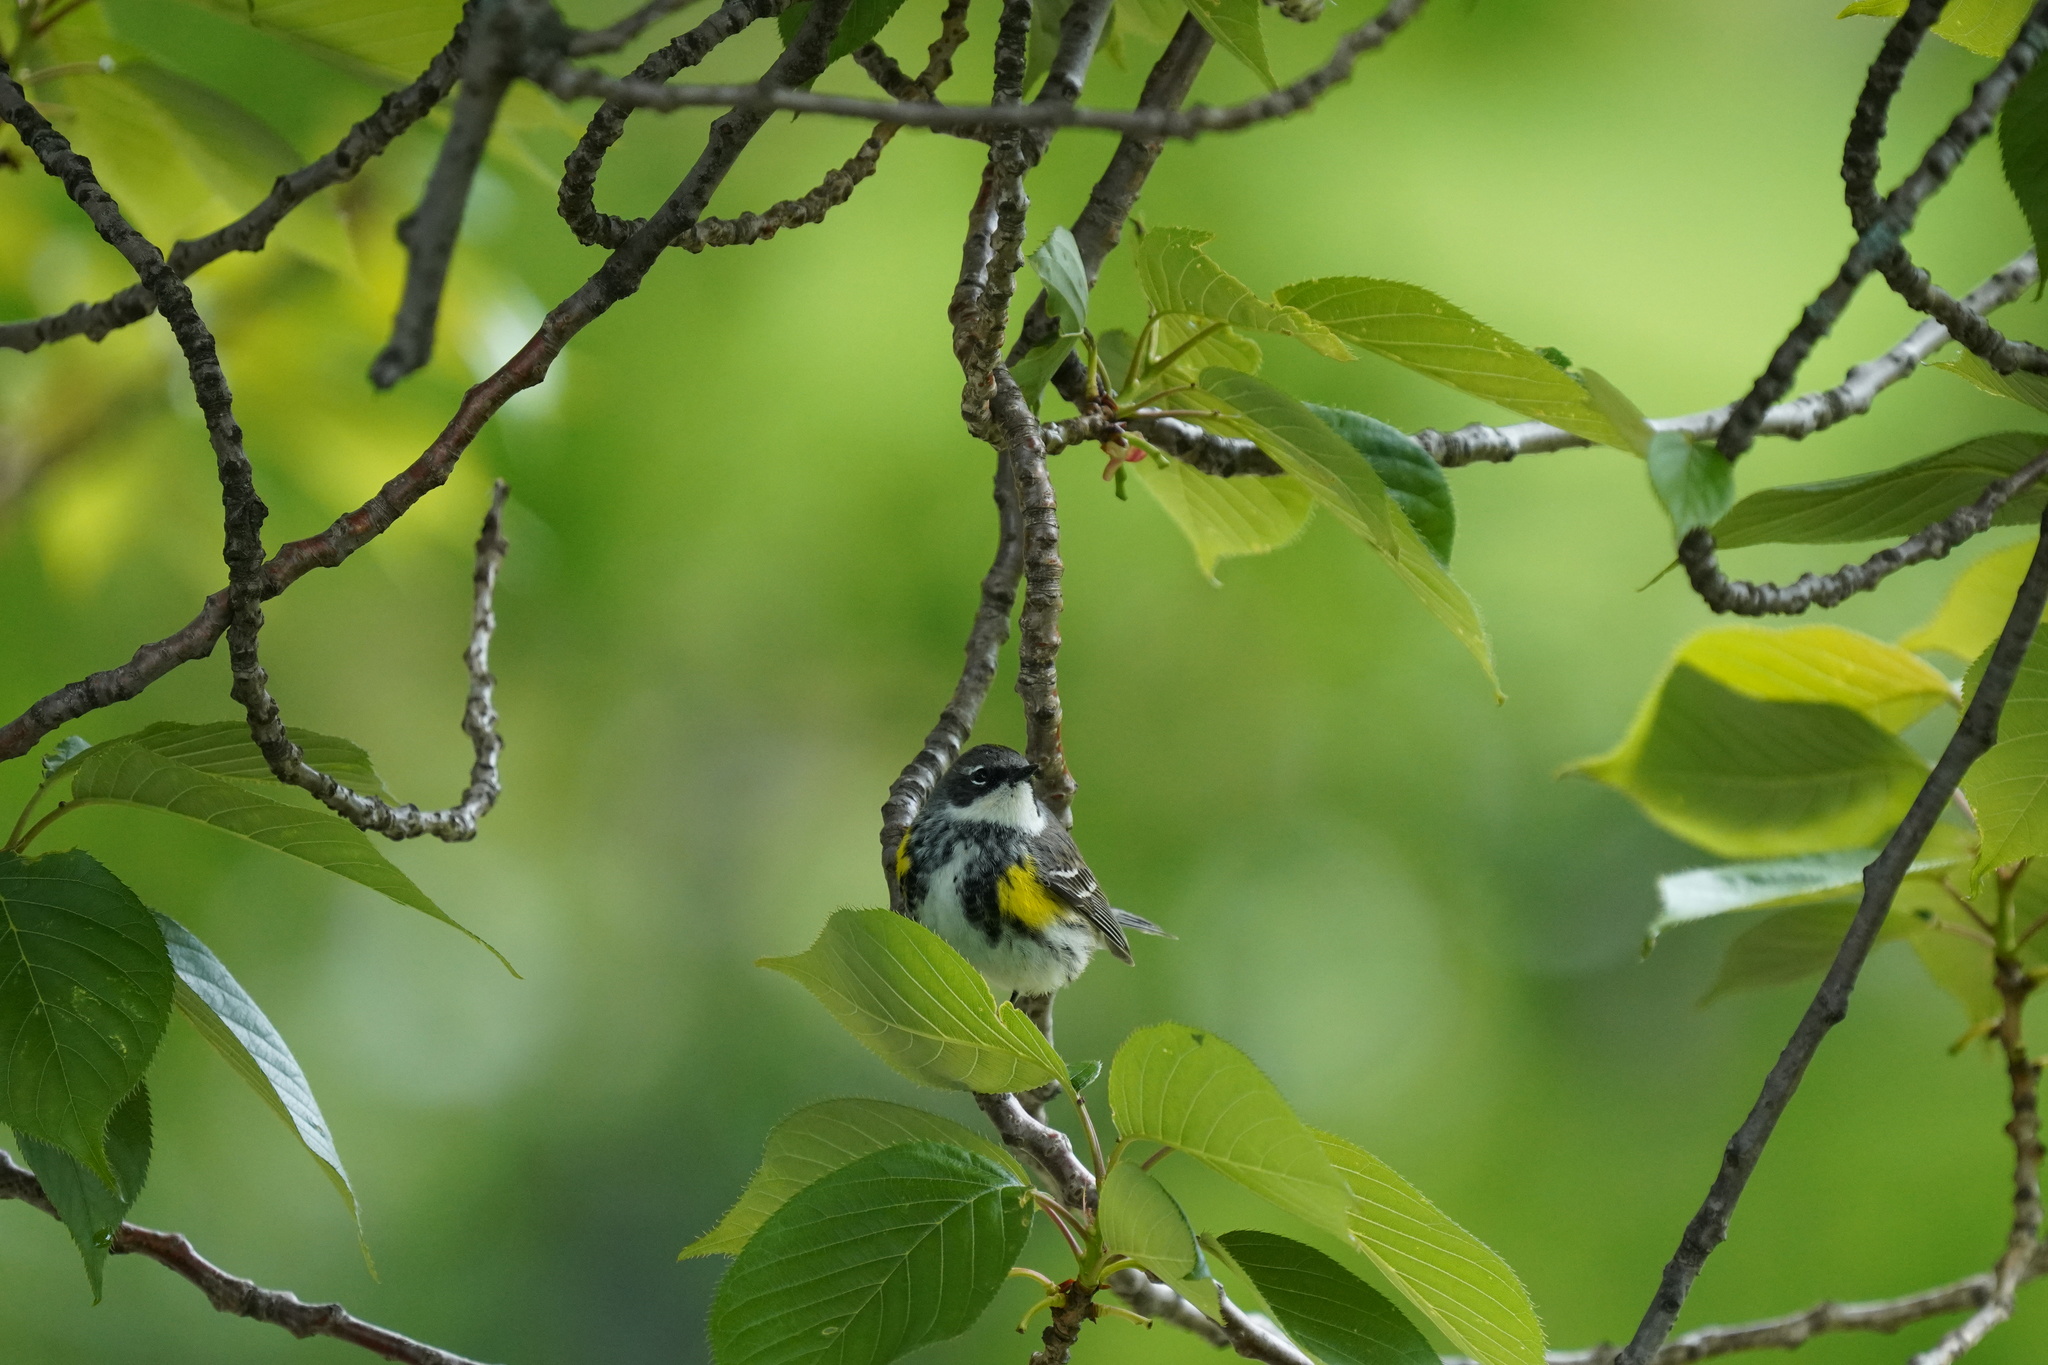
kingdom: Animalia
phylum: Chordata
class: Aves
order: Passeriformes
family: Parulidae
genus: Setophaga
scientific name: Setophaga coronata
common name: Myrtle warbler
